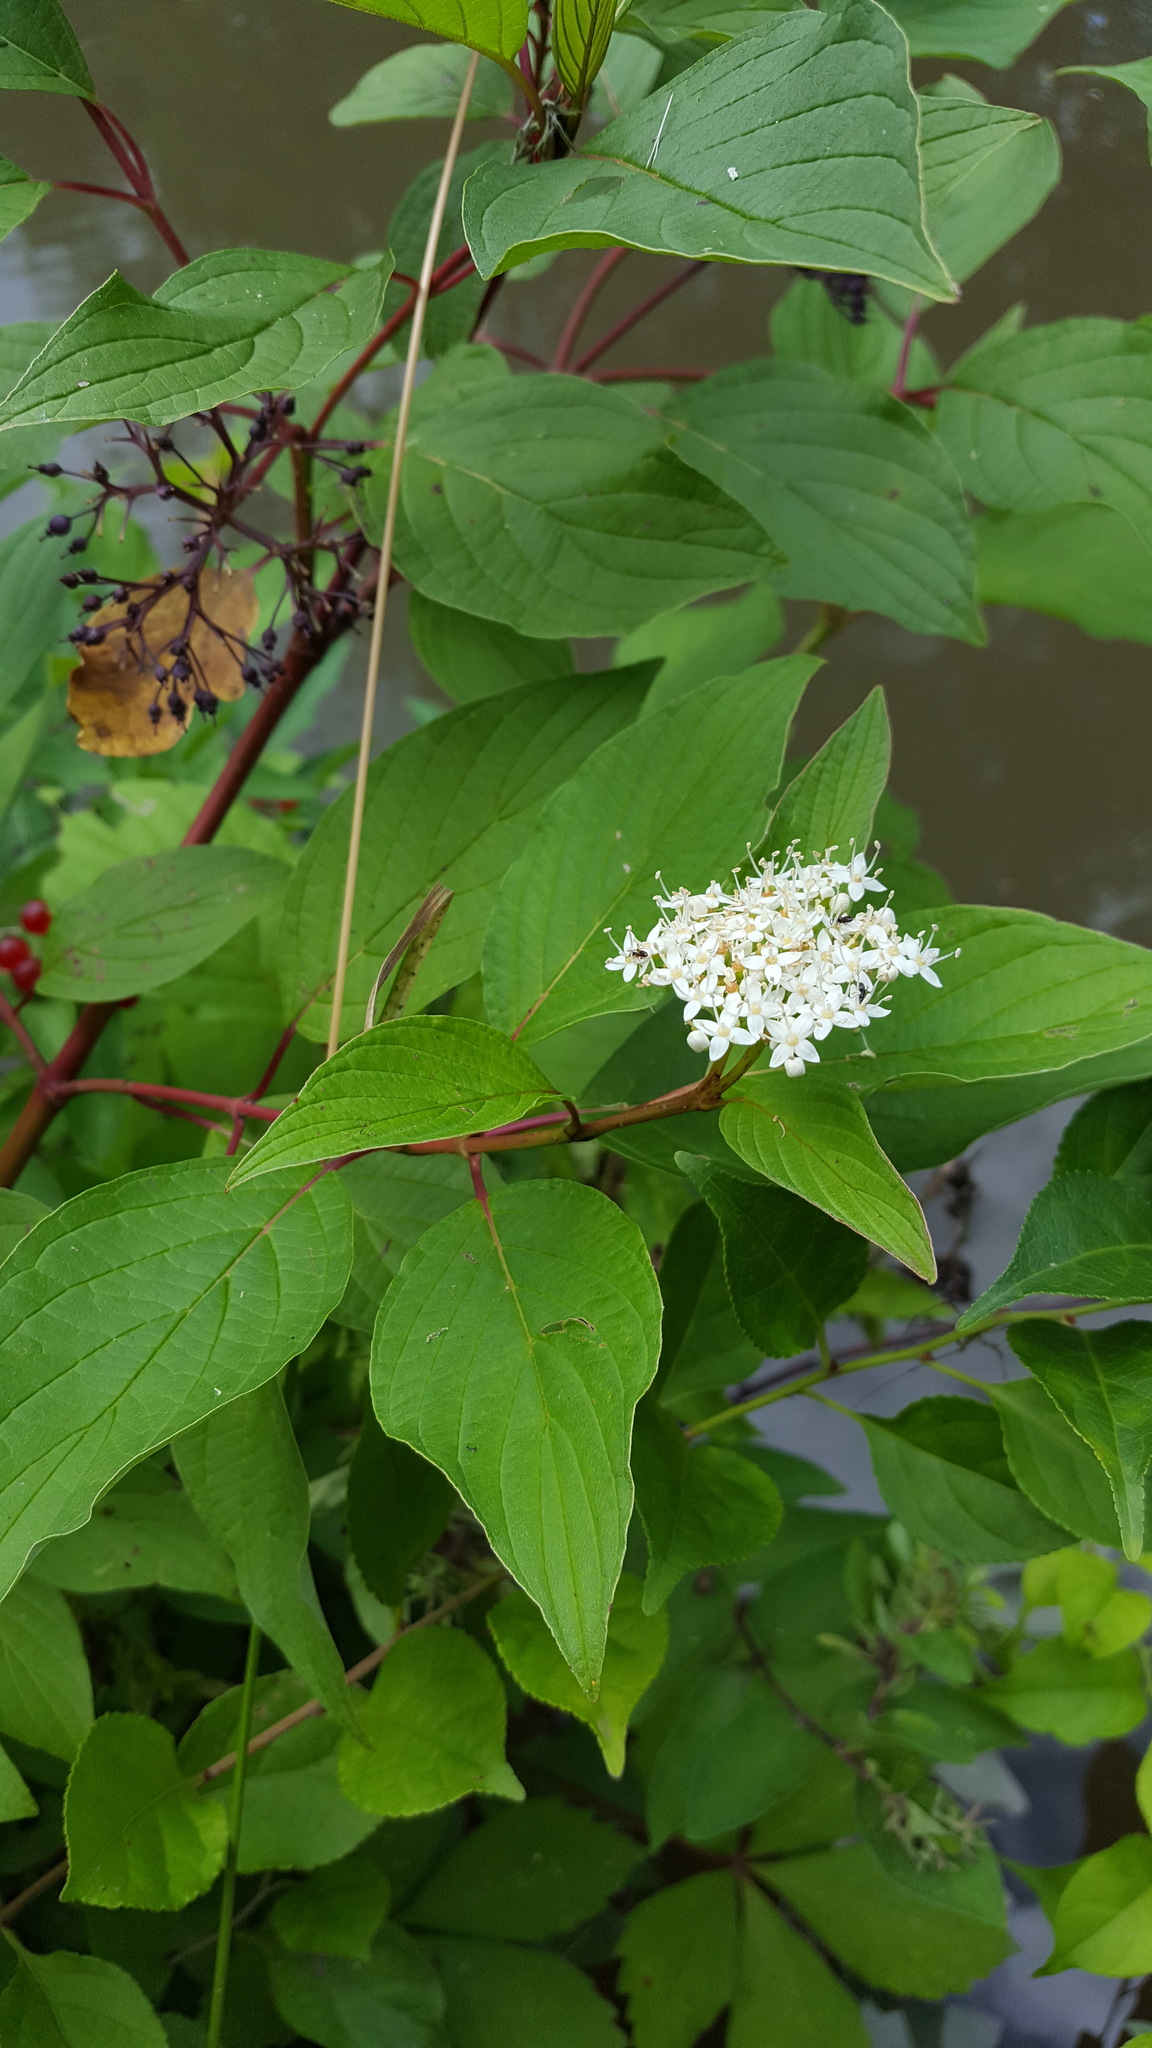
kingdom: Plantae
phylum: Tracheophyta
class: Magnoliopsida
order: Cornales
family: Cornaceae
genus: Cornus
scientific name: Cornus sericea
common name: Red-osier dogwood
